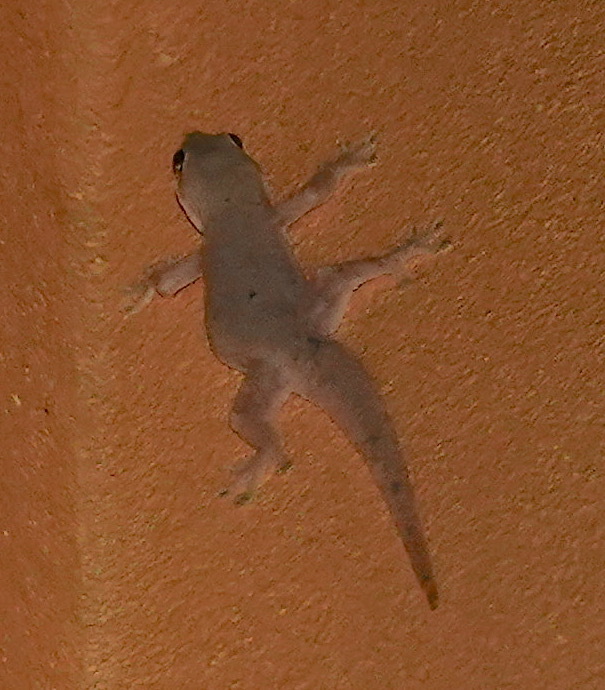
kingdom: Animalia
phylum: Chordata
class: Squamata
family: Gekkonidae
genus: Hemidactylus
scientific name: Hemidactylus platyurus
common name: Flat-tailed house gecko
